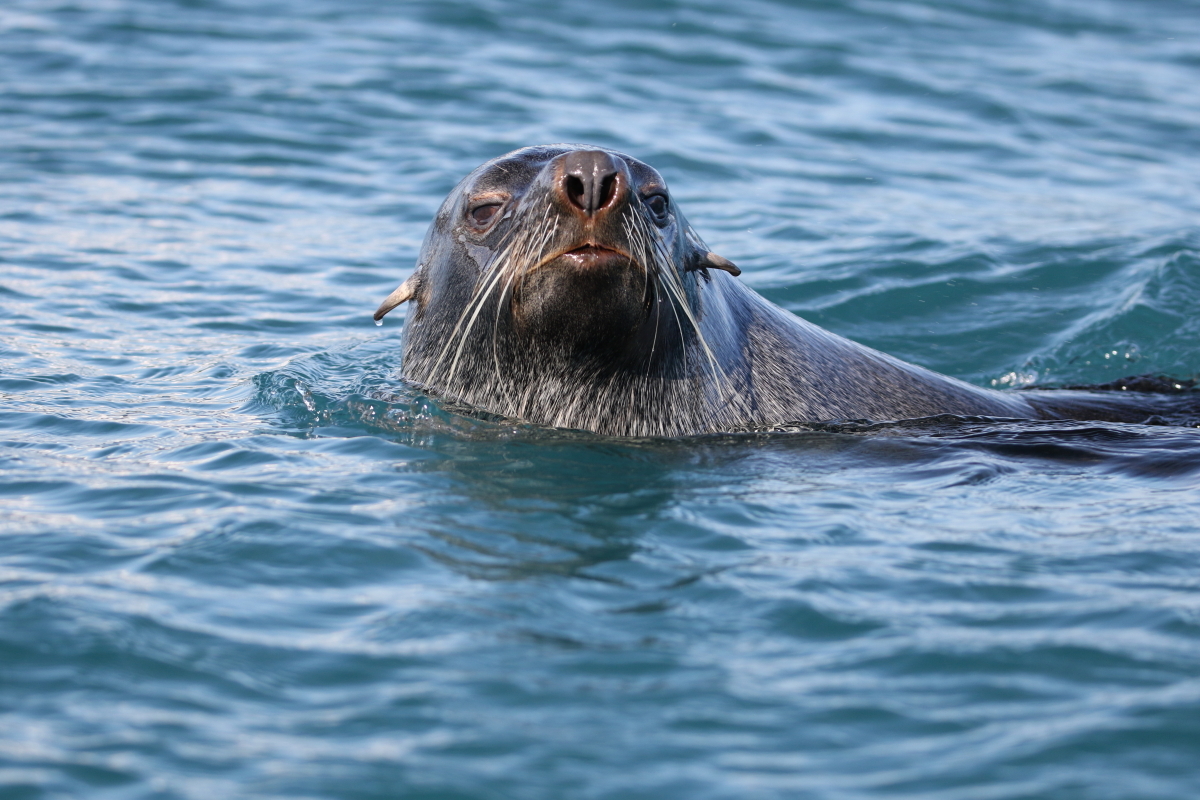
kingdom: Animalia
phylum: Chordata
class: Mammalia
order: Carnivora
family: Otariidae
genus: Arctocephalus
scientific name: Arctocephalus gazella
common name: Antarctic fur seal
